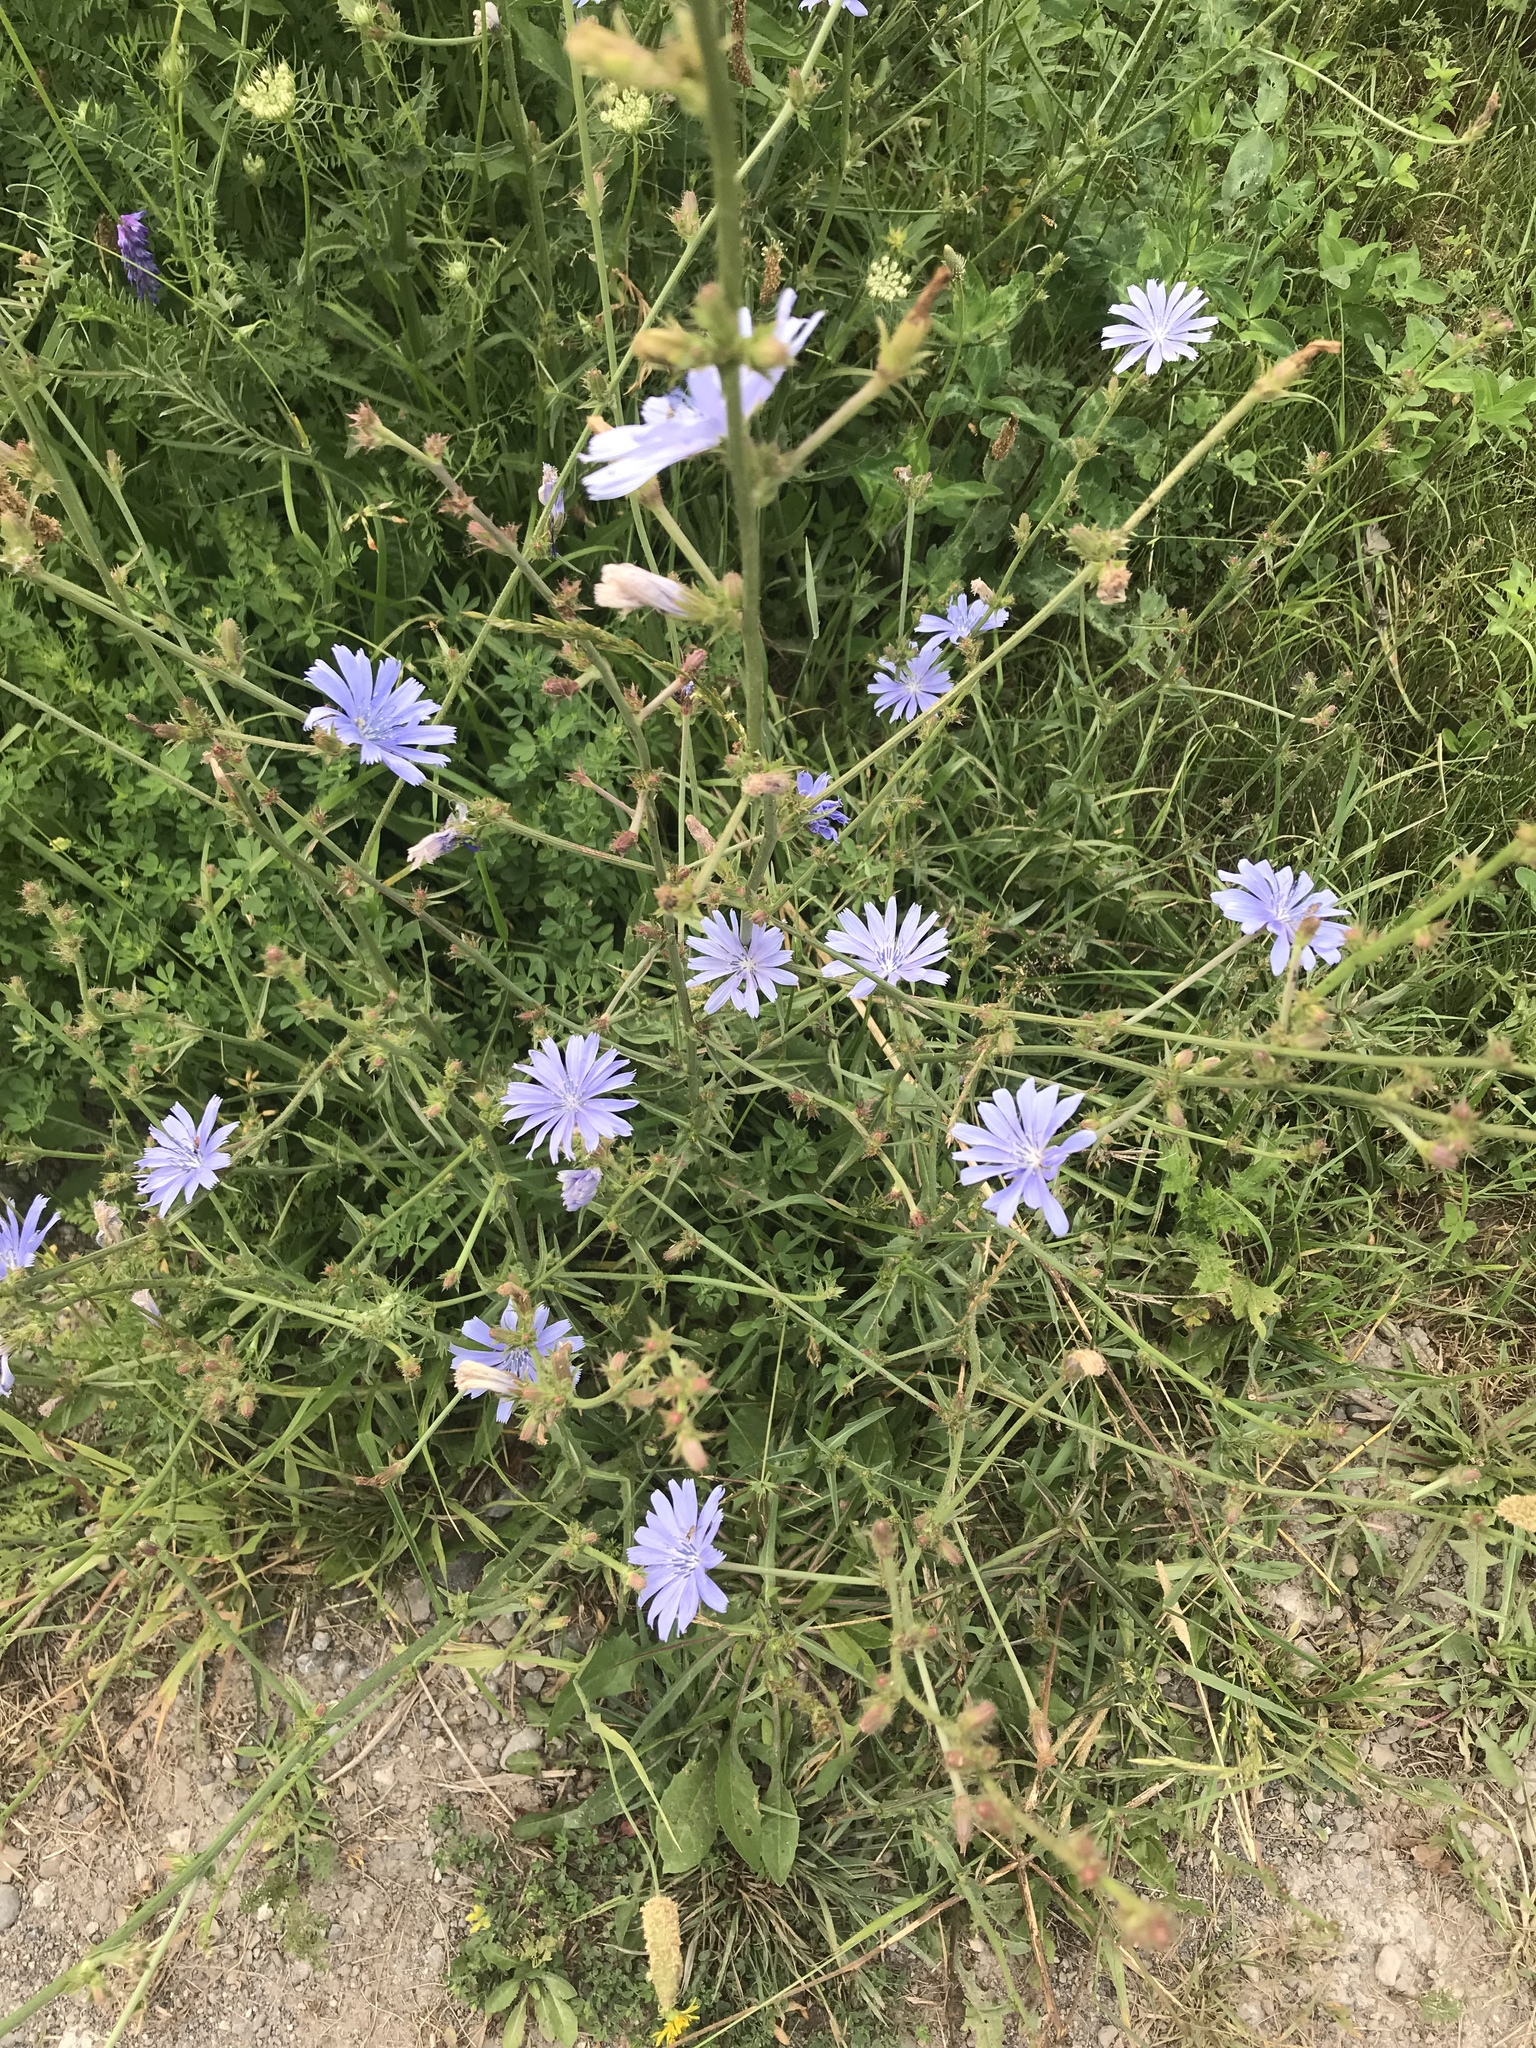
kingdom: Plantae
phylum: Tracheophyta
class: Magnoliopsida
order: Asterales
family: Asteraceae
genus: Cichorium
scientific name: Cichorium intybus
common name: Chicory
